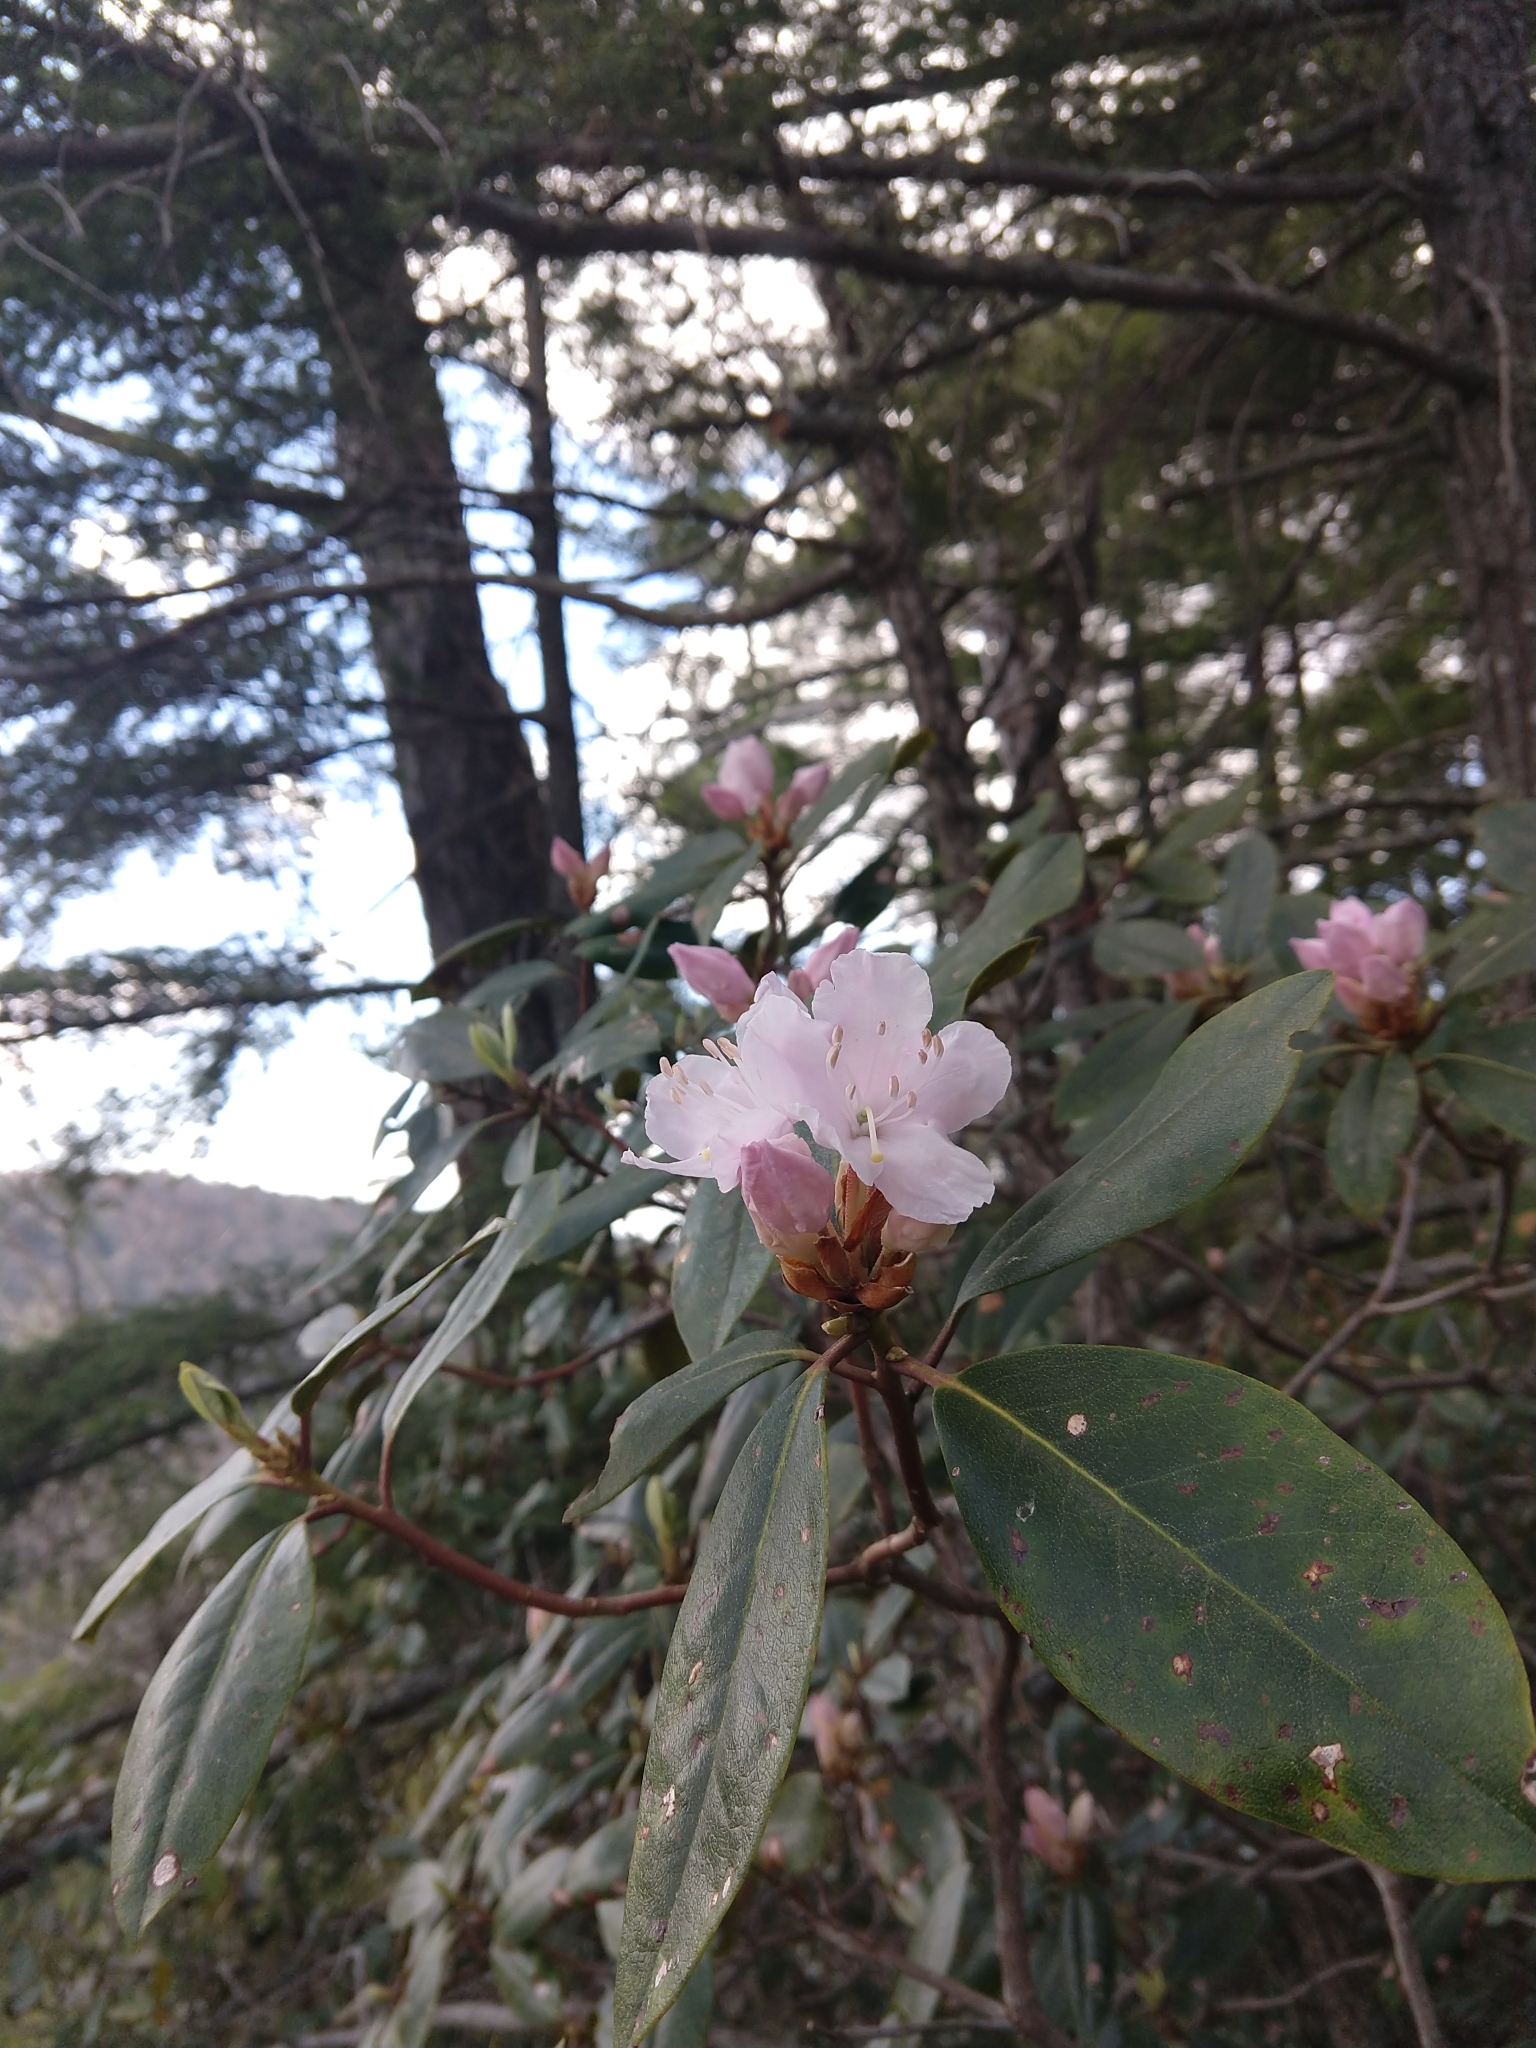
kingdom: Plantae
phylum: Tracheophyta
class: Magnoliopsida
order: Ericales
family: Ericaceae
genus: Rhododendron
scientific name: Rhododendron minus
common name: Piedmont rhododendron
